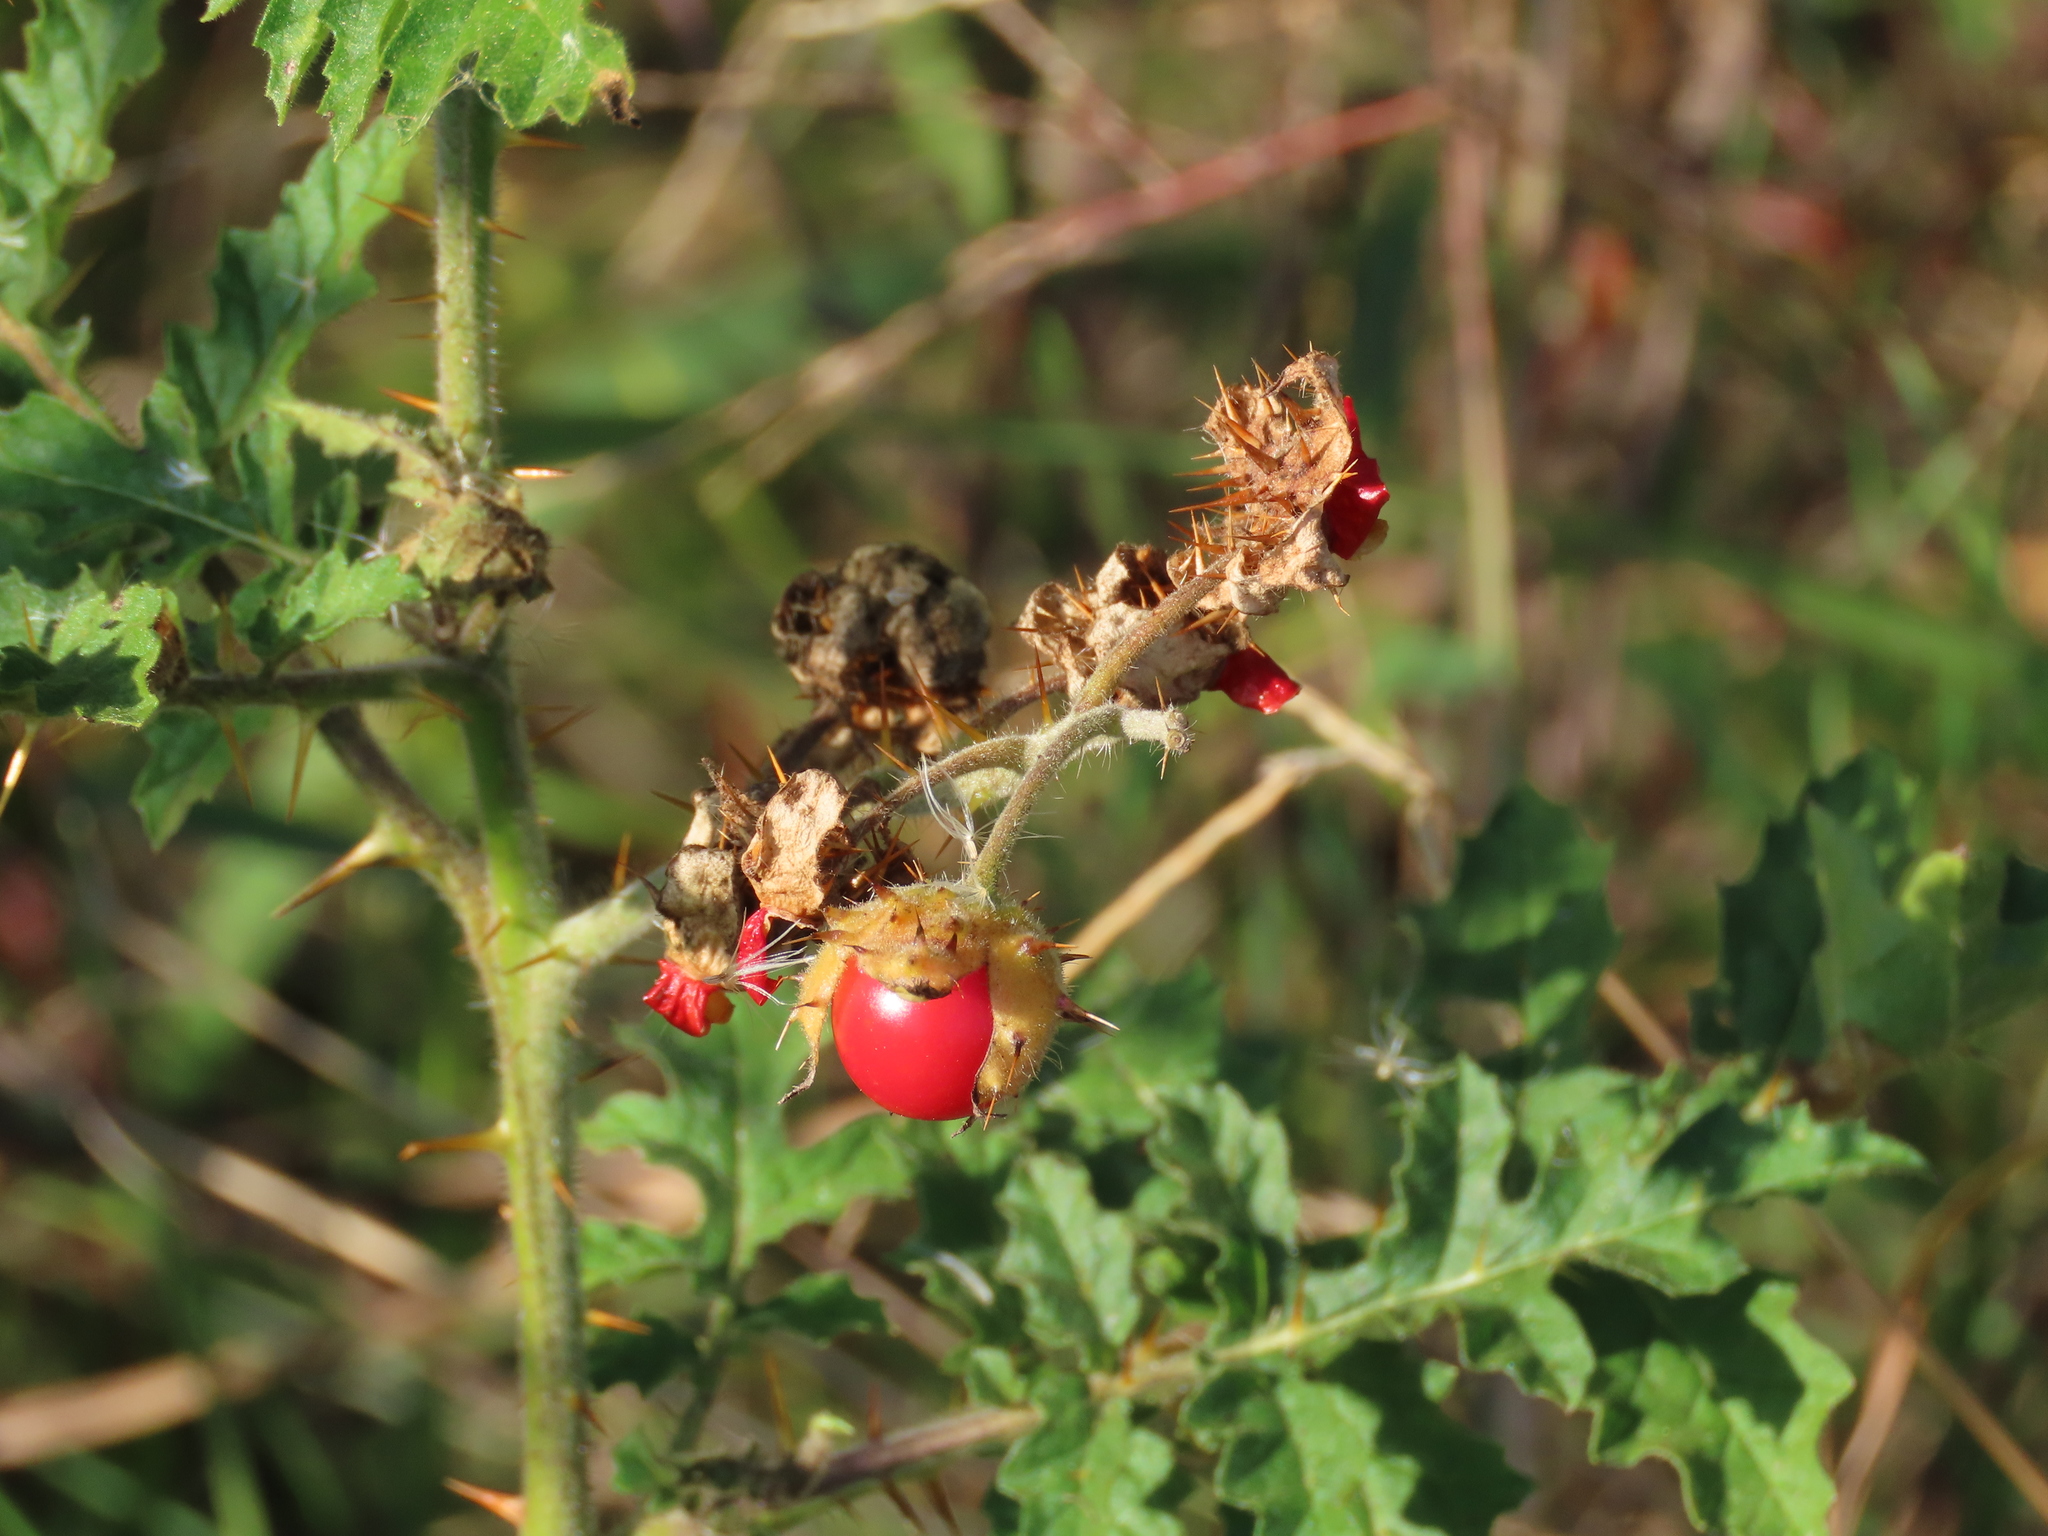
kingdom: Plantae
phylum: Tracheophyta
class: Magnoliopsida
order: Solanales
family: Solanaceae
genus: Solanum
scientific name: Solanum sisymbriifolium
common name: Red buffalo-bur
